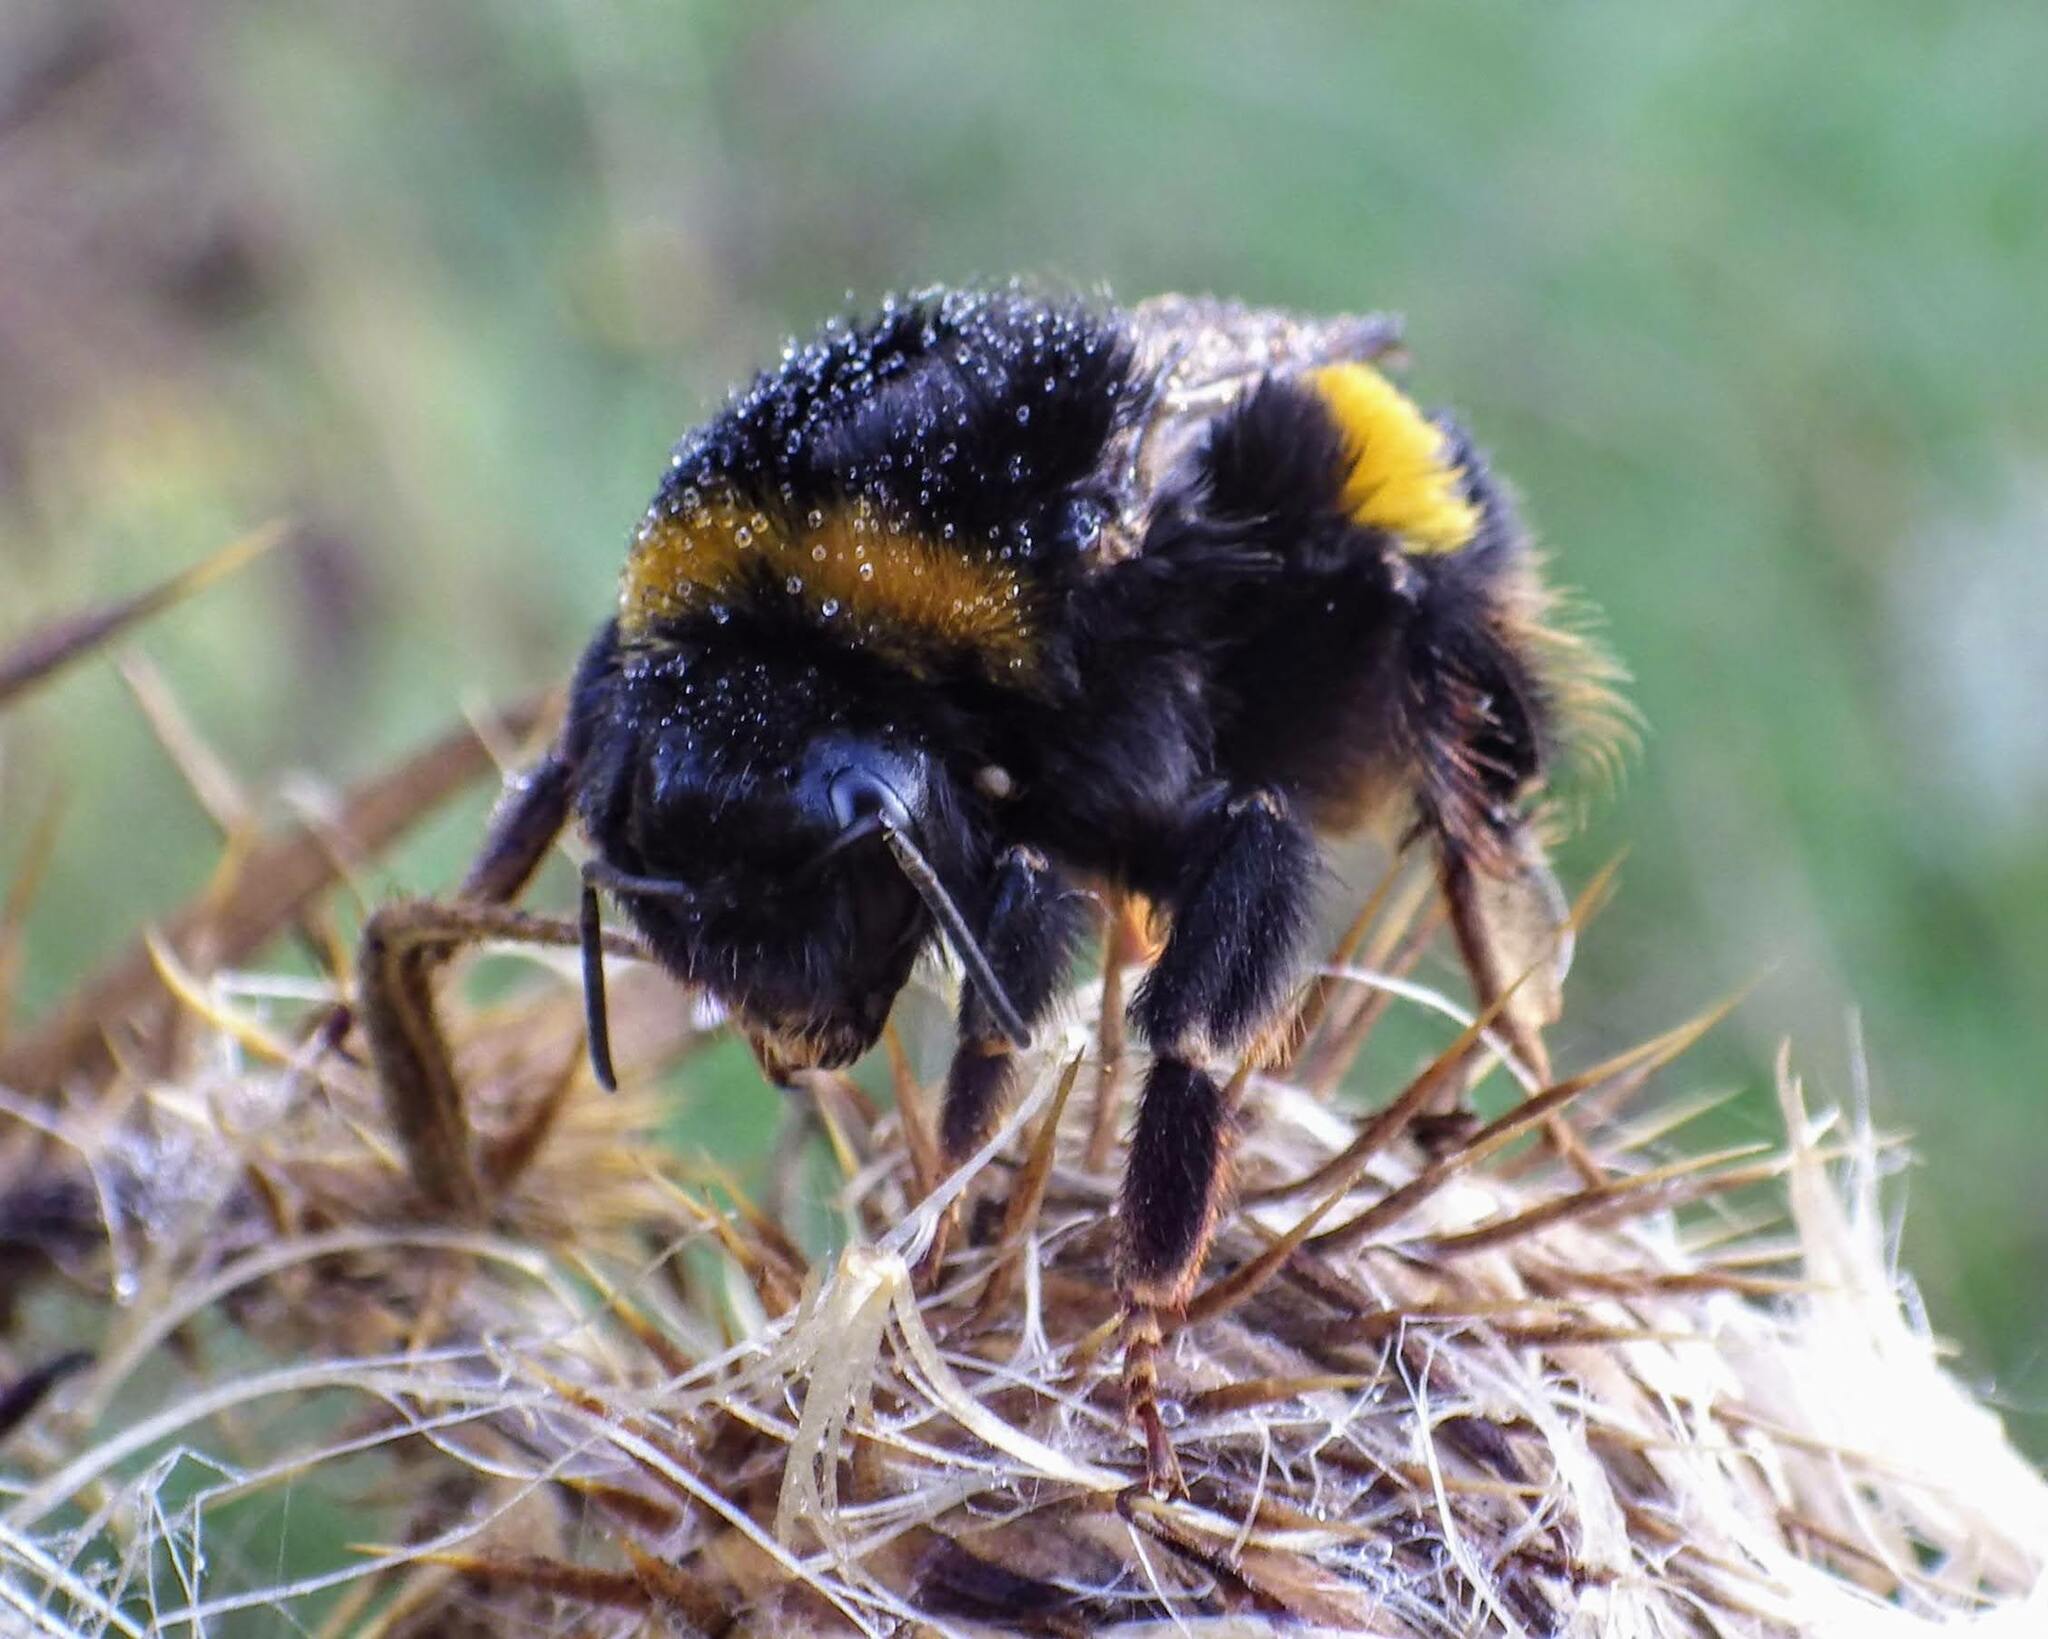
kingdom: Animalia
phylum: Arthropoda
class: Insecta
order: Hymenoptera
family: Apidae
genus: Bombus
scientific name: Bombus terrestris
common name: Buff-tailed bumblebee
